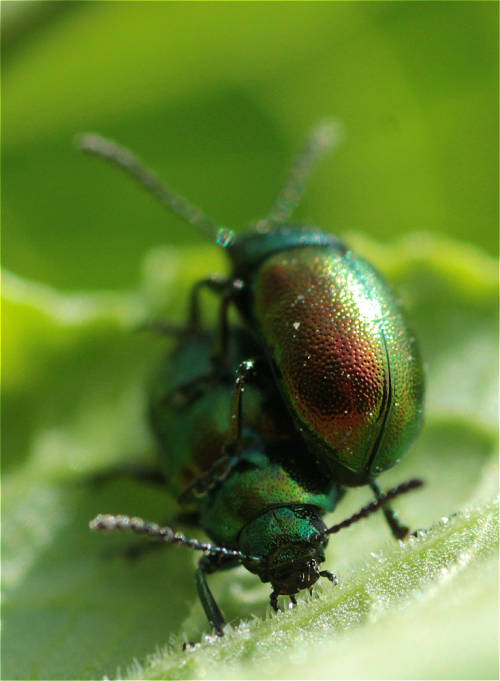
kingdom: Animalia
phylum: Arthropoda
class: Insecta
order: Coleoptera
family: Chrysomelidae
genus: Gastrophysa
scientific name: Gastrophysa viridula
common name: Green dock beetle
